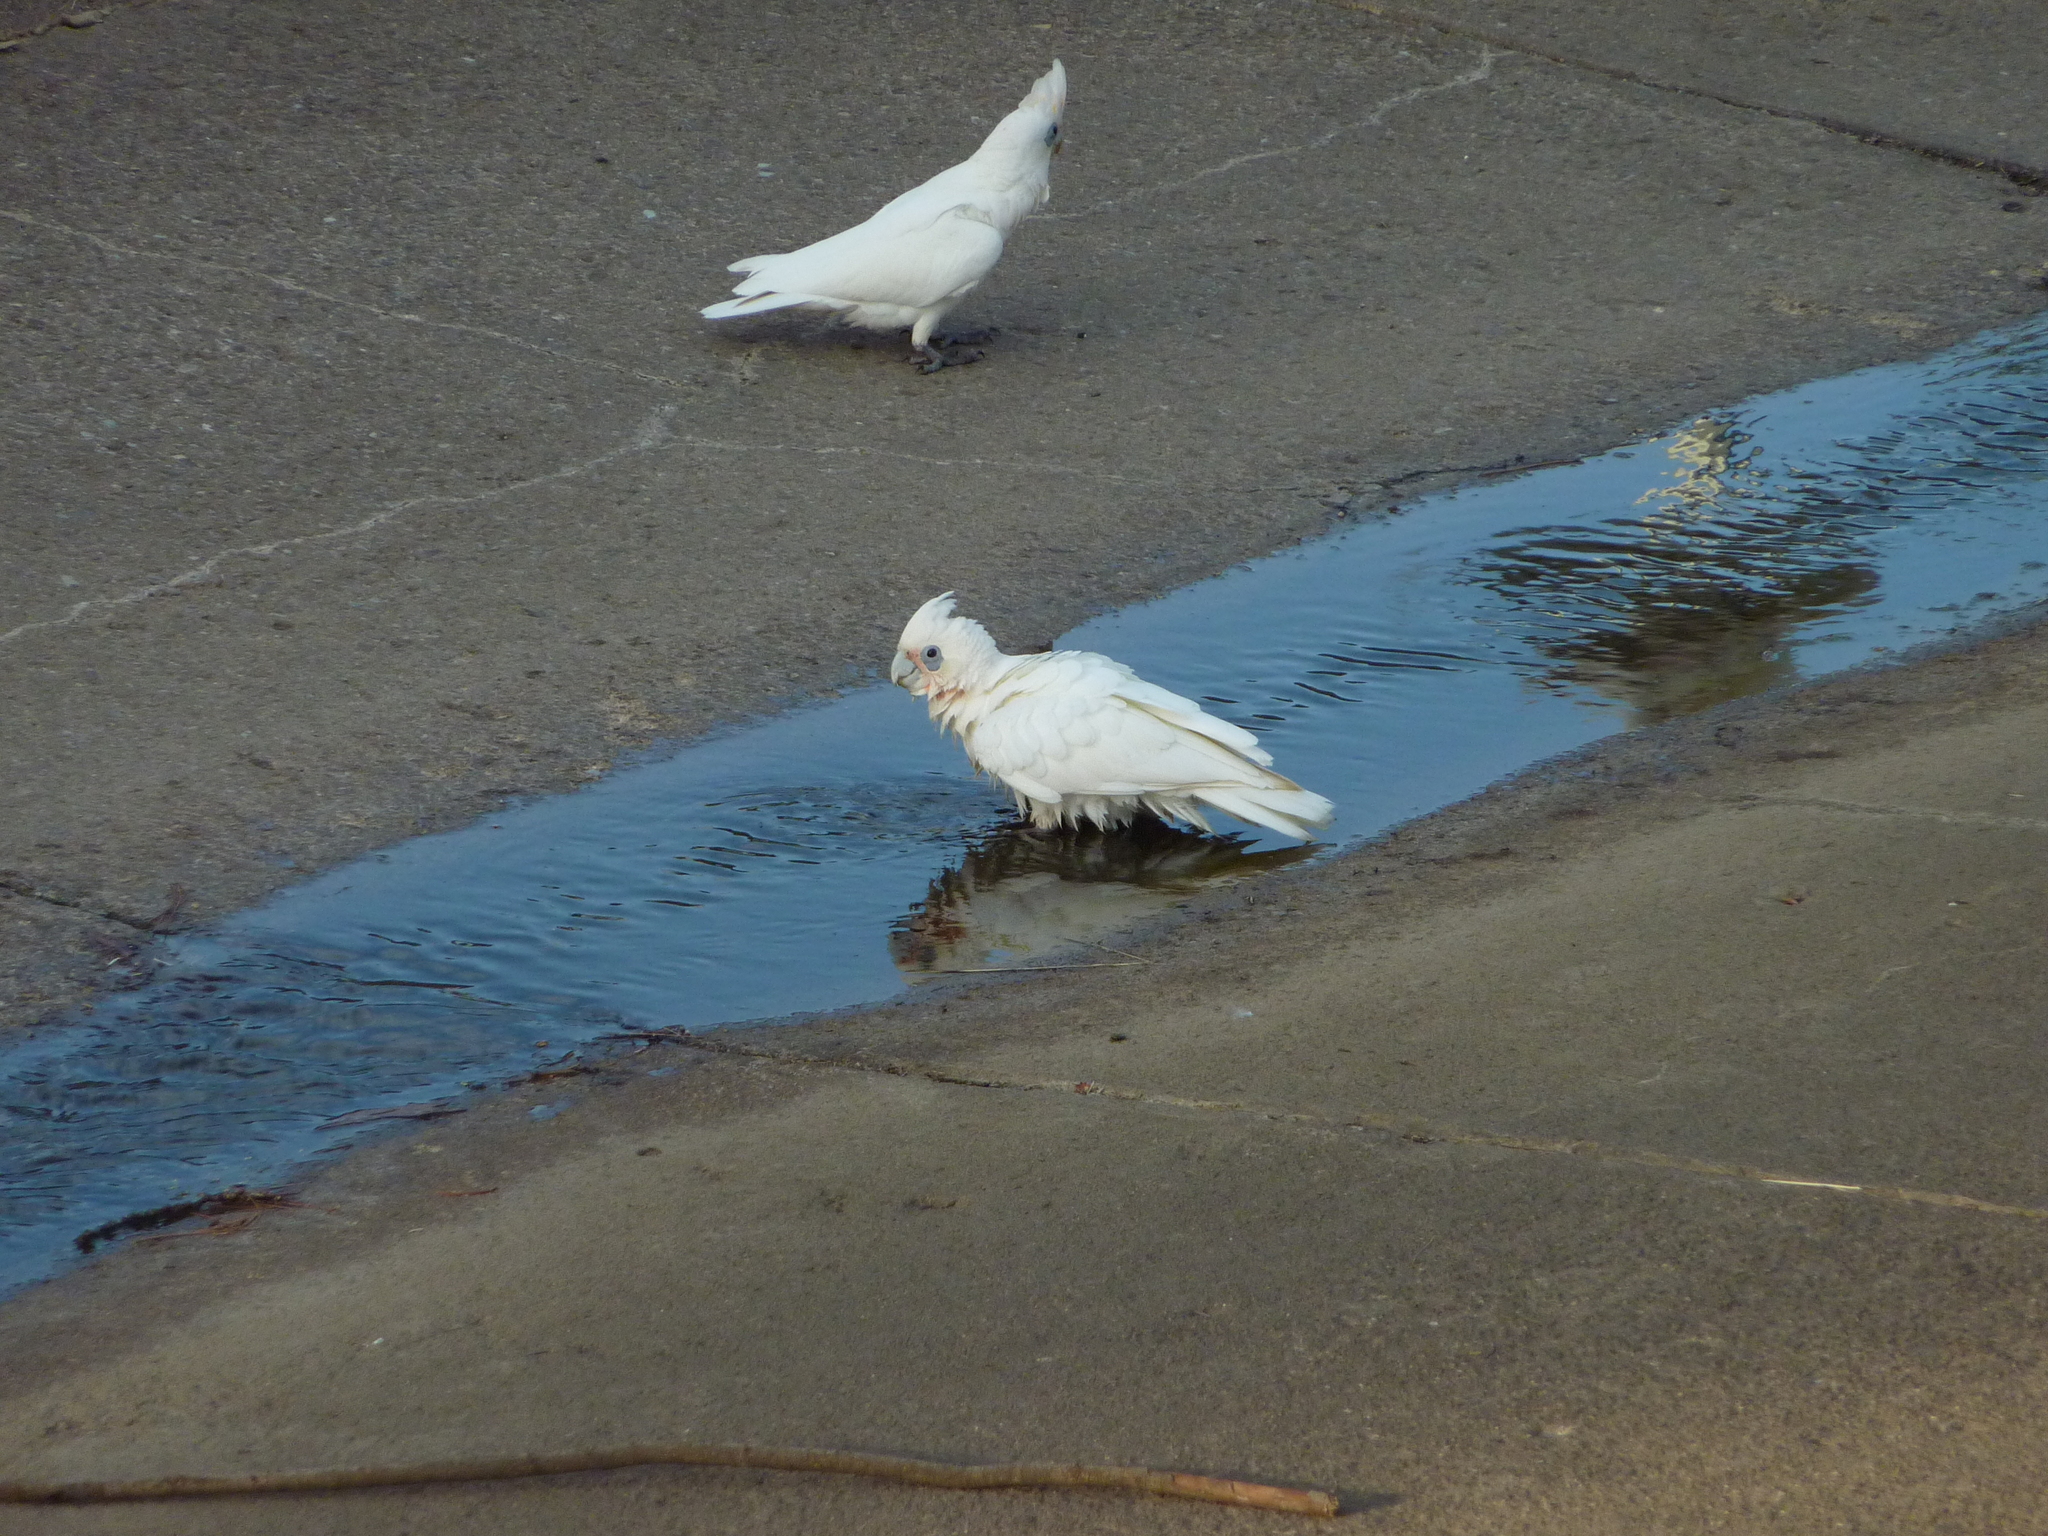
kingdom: Animalia
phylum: Chordata
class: Aves
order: Psittaciformes
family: Psittacidae
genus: Cacatua
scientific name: Cacatua sanguinea
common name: Little corella
